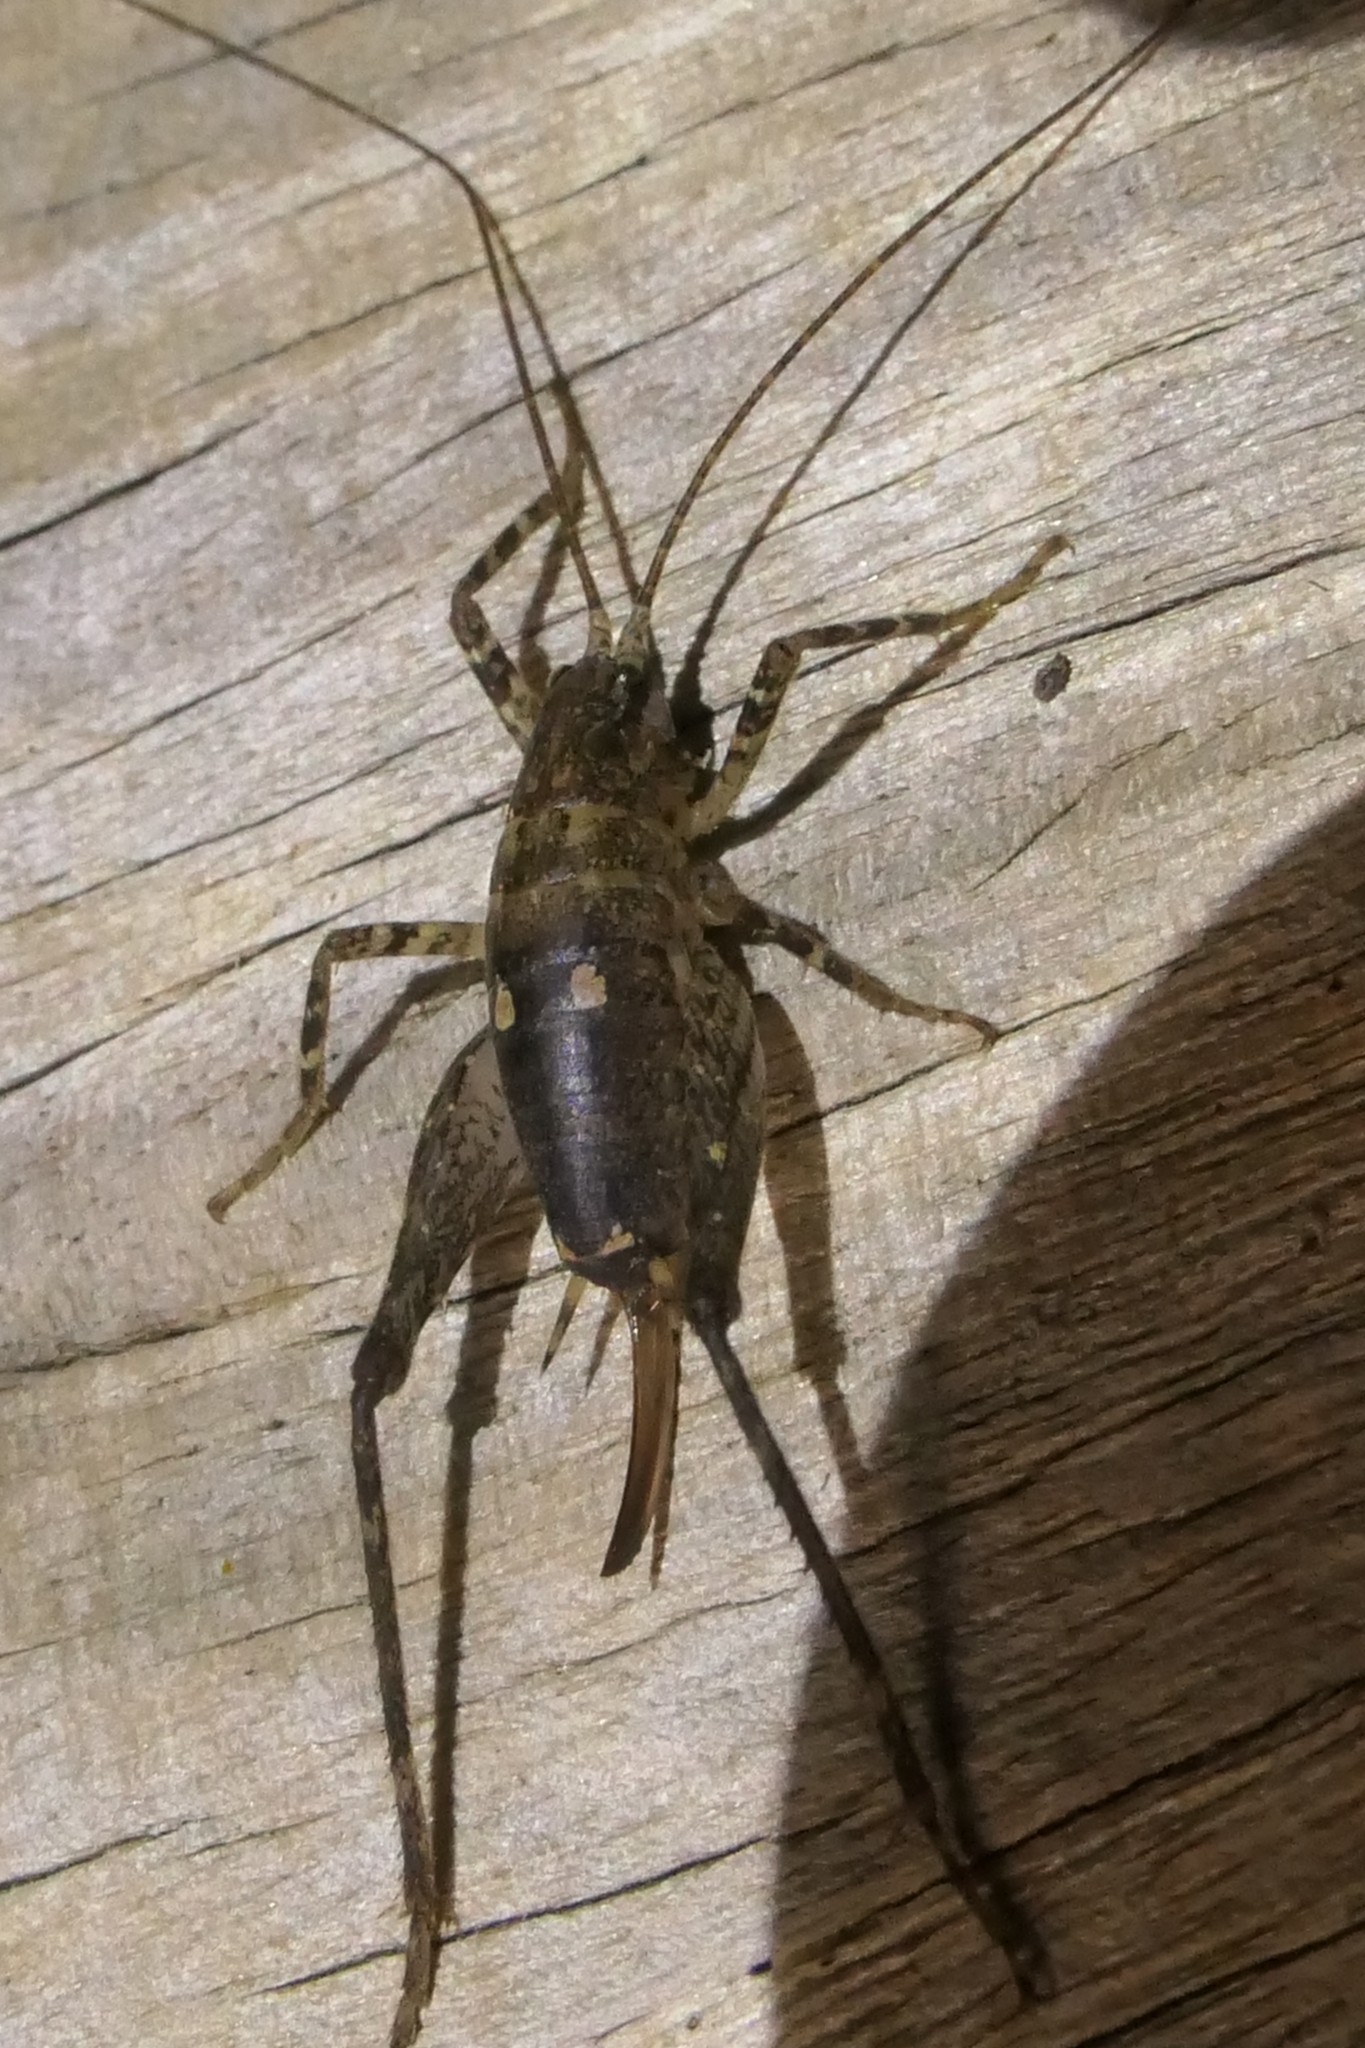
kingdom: Animalia
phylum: Arthropoda
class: Insecta
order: Orthoptera
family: Rhaphidophoridae
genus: Isoplectron
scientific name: Isoplectron armatum
